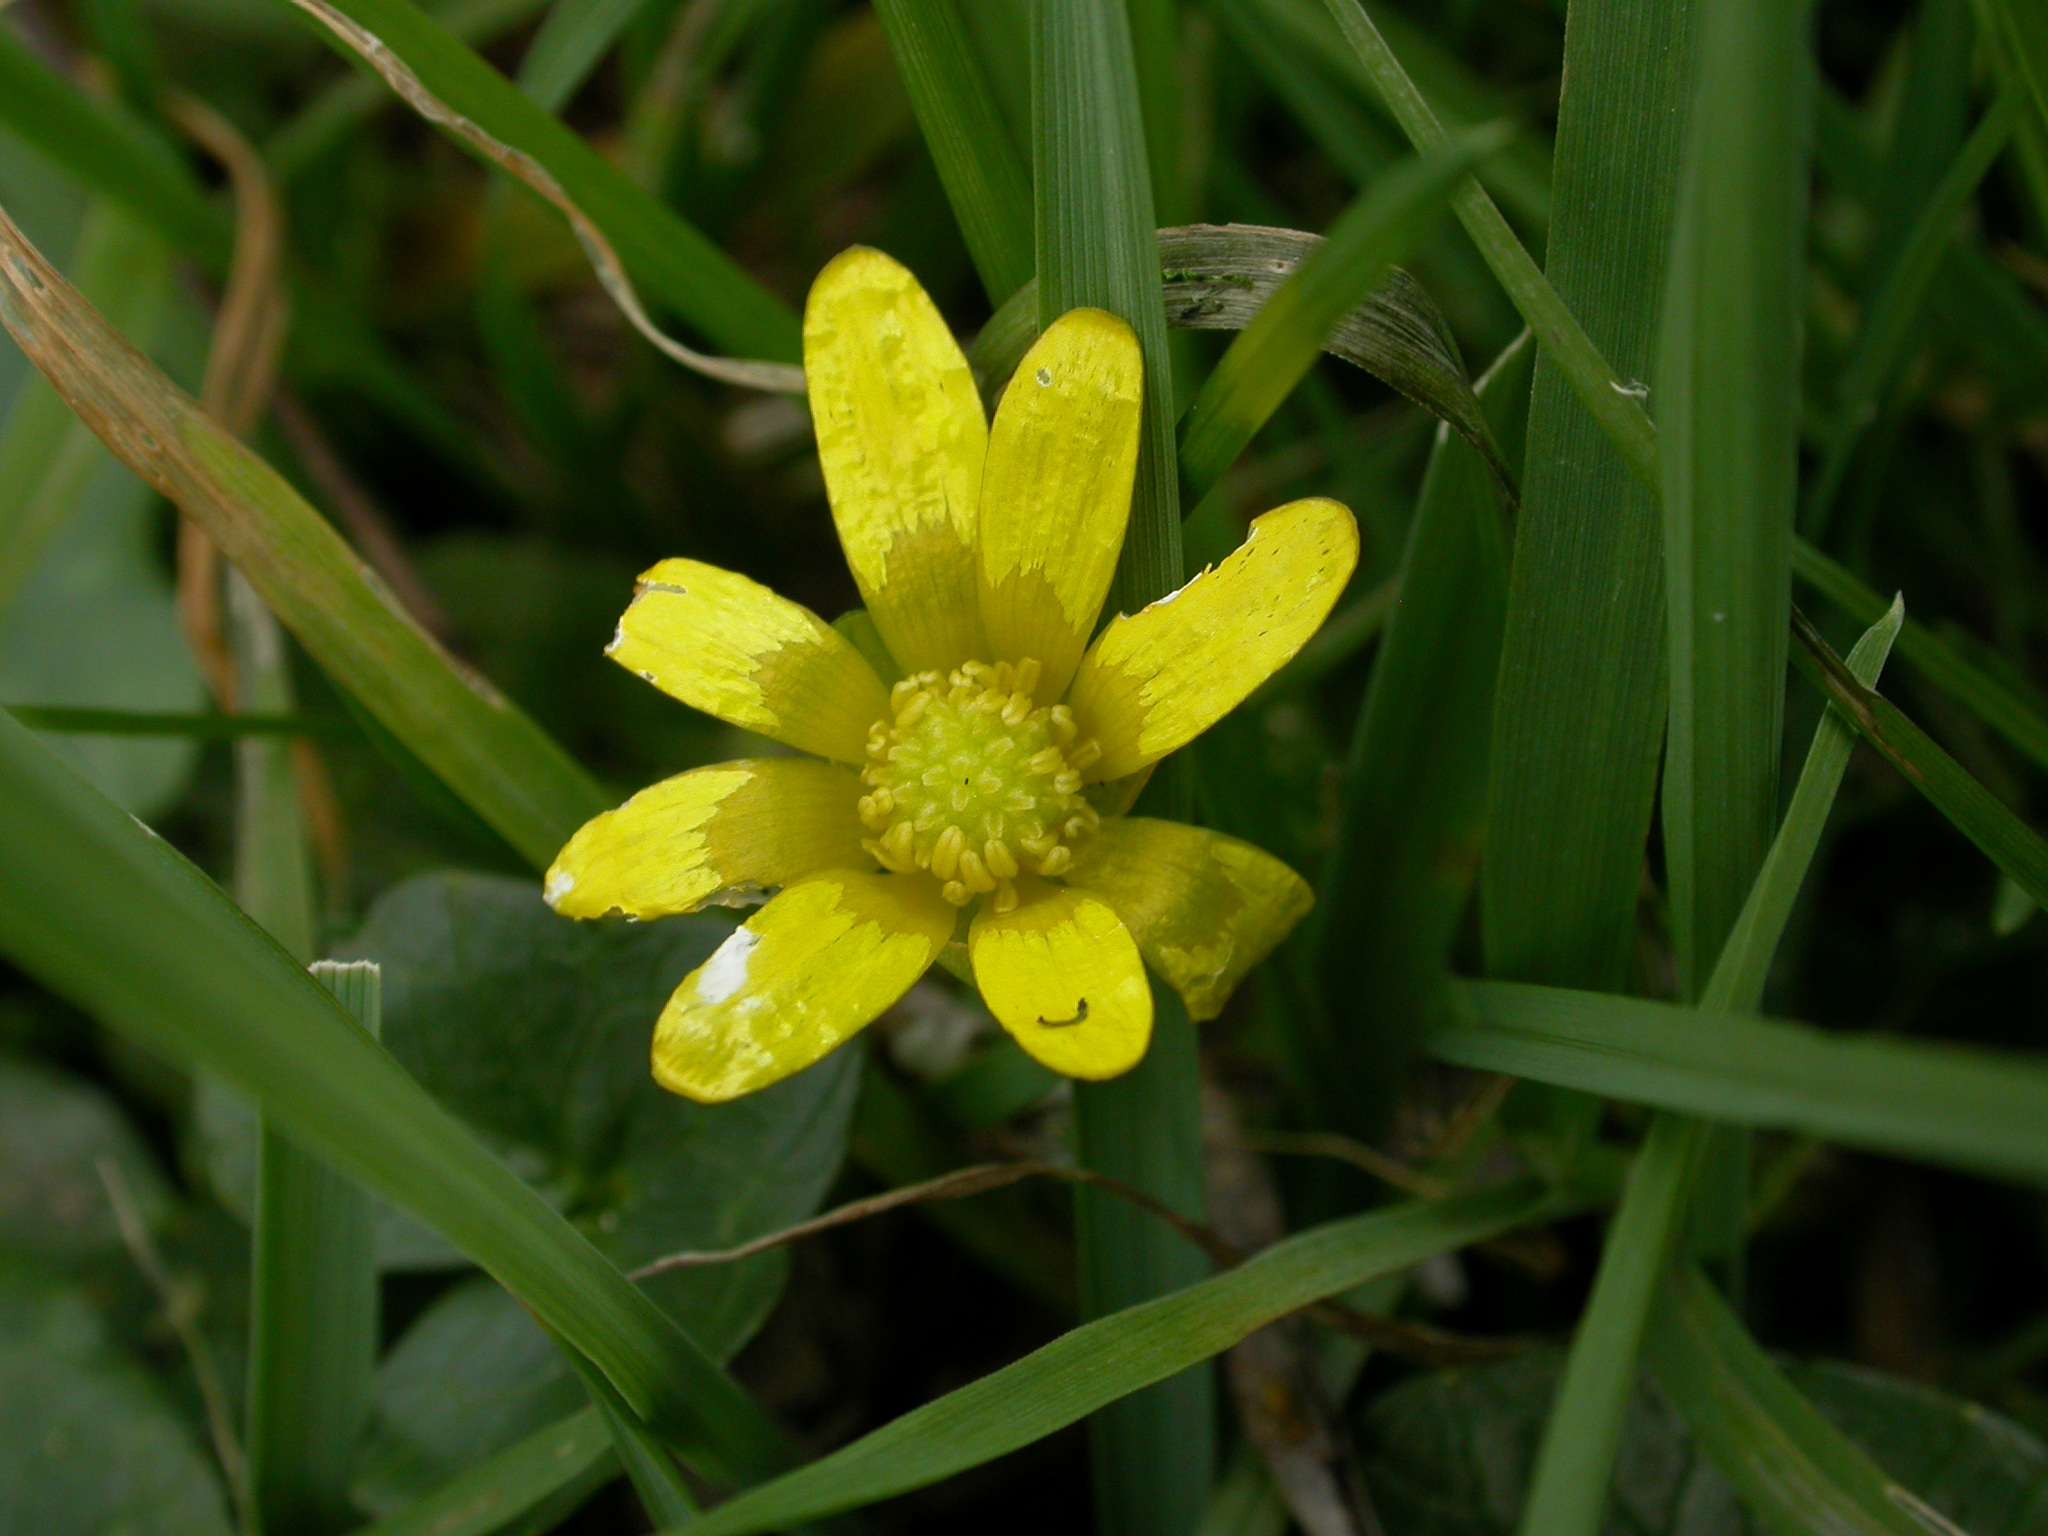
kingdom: Plantae
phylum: Tracheophyta
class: Magnoliopsida
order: Ranunculales
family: Ranunculaceae
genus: Ficaria
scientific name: Ficaria verna
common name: Lesser celandine
